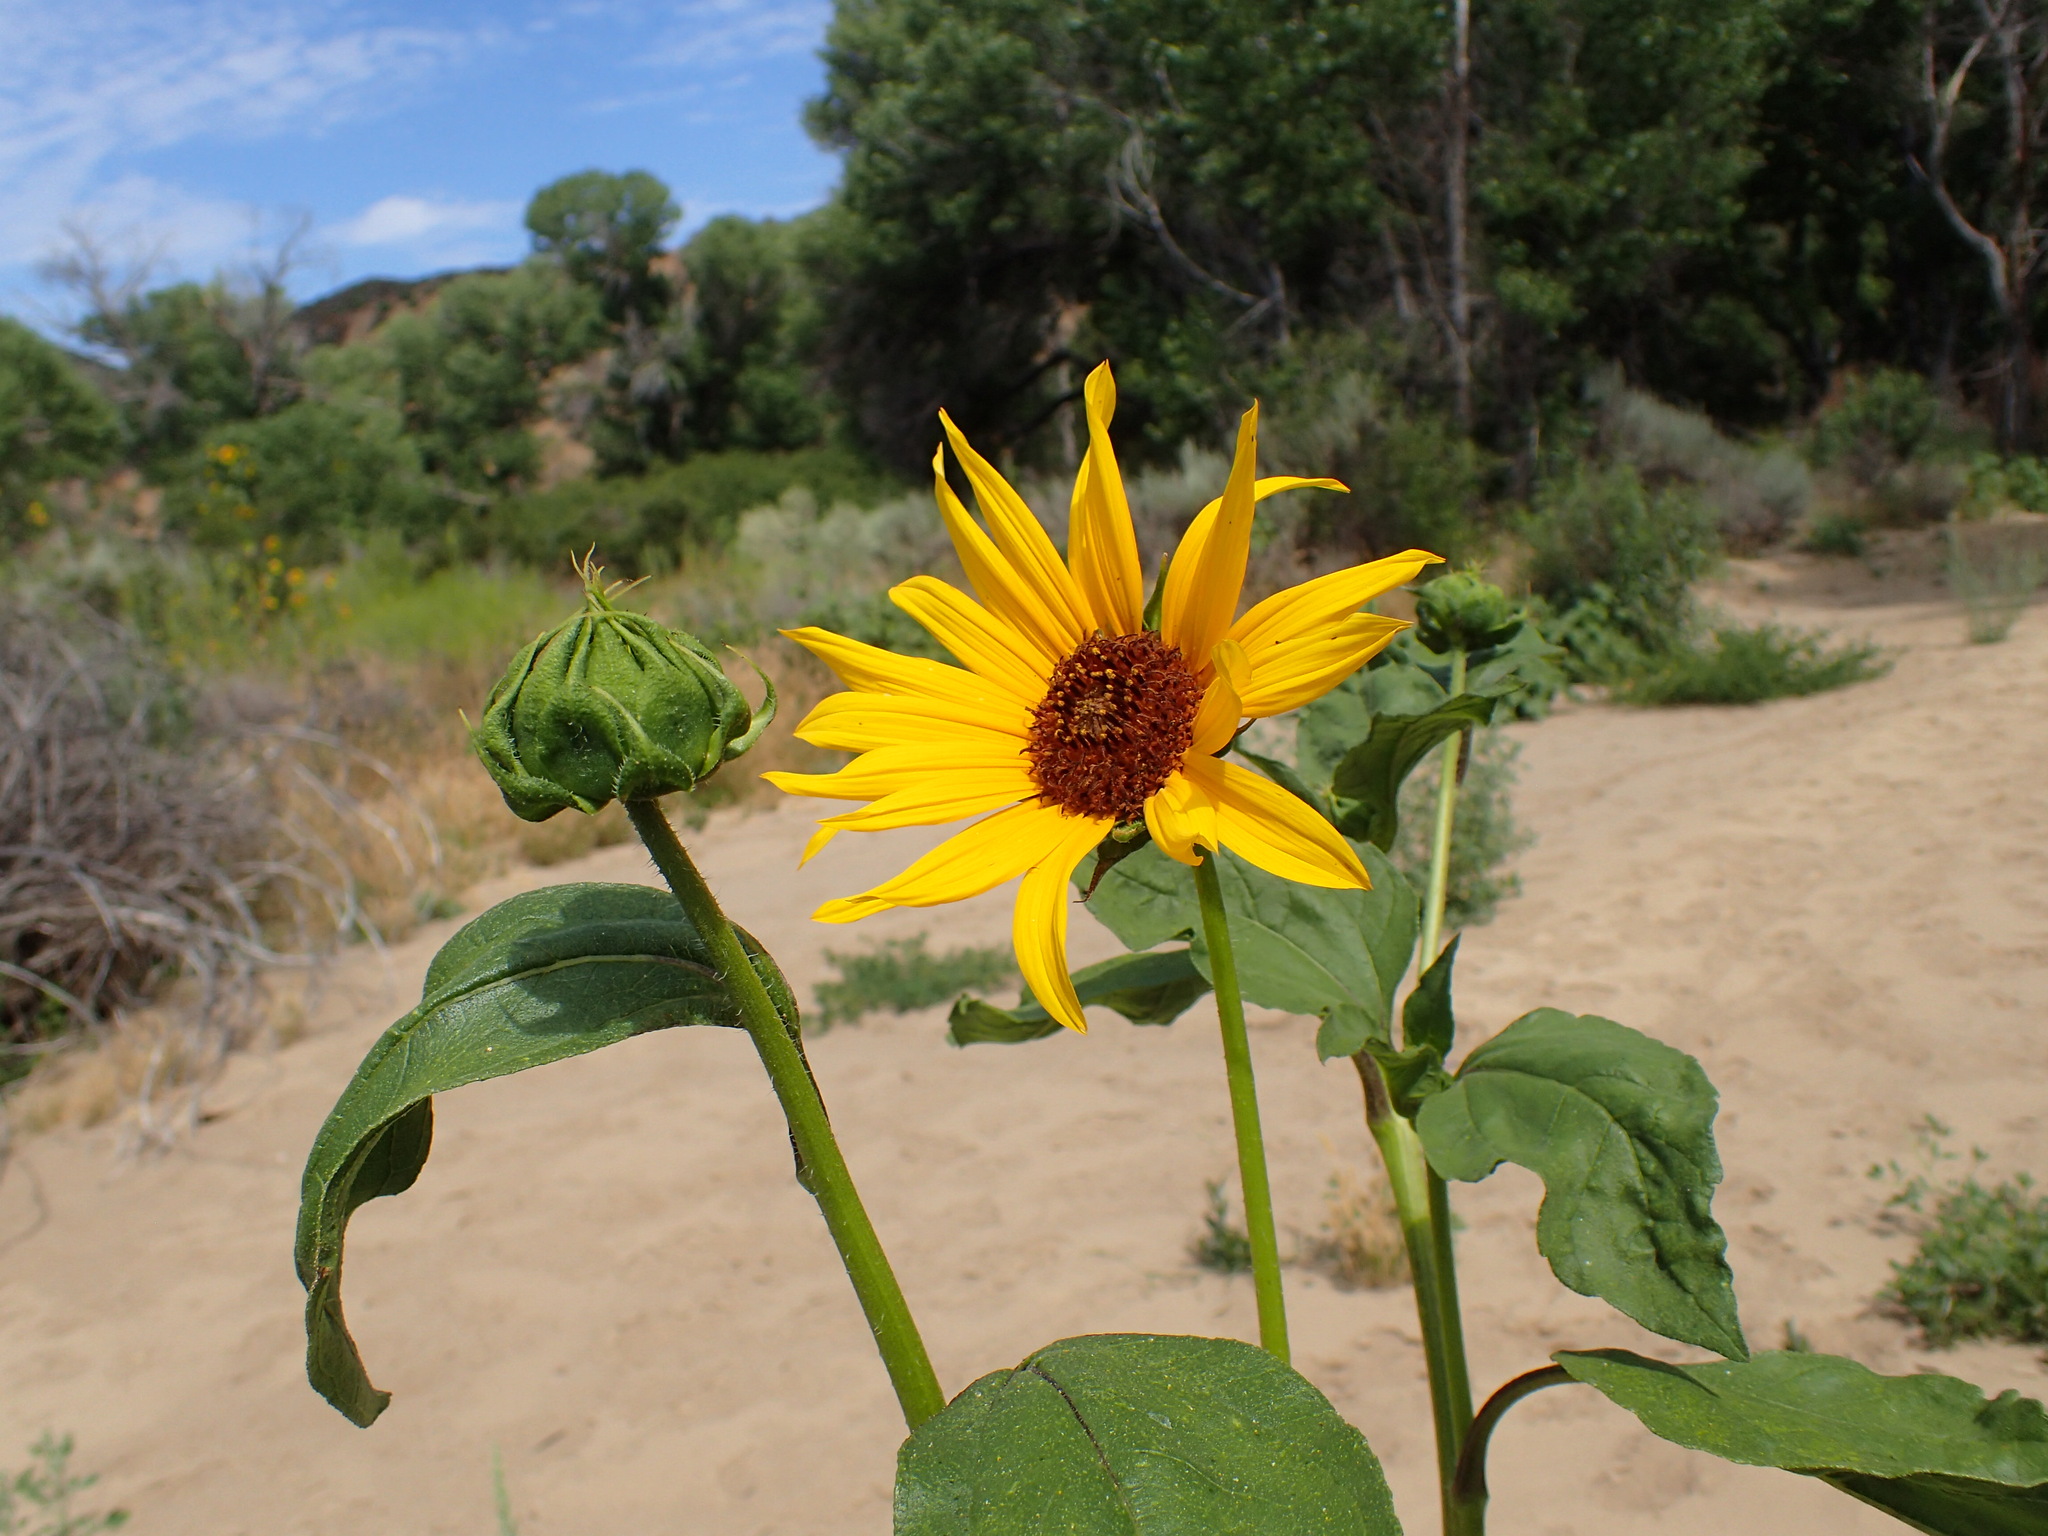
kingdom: Plantae
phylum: Tracheophyta
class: Magnoliopsida
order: Asterales
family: Asteraceae
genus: Helianthus
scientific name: Helianthus annuus
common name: Sunflower
